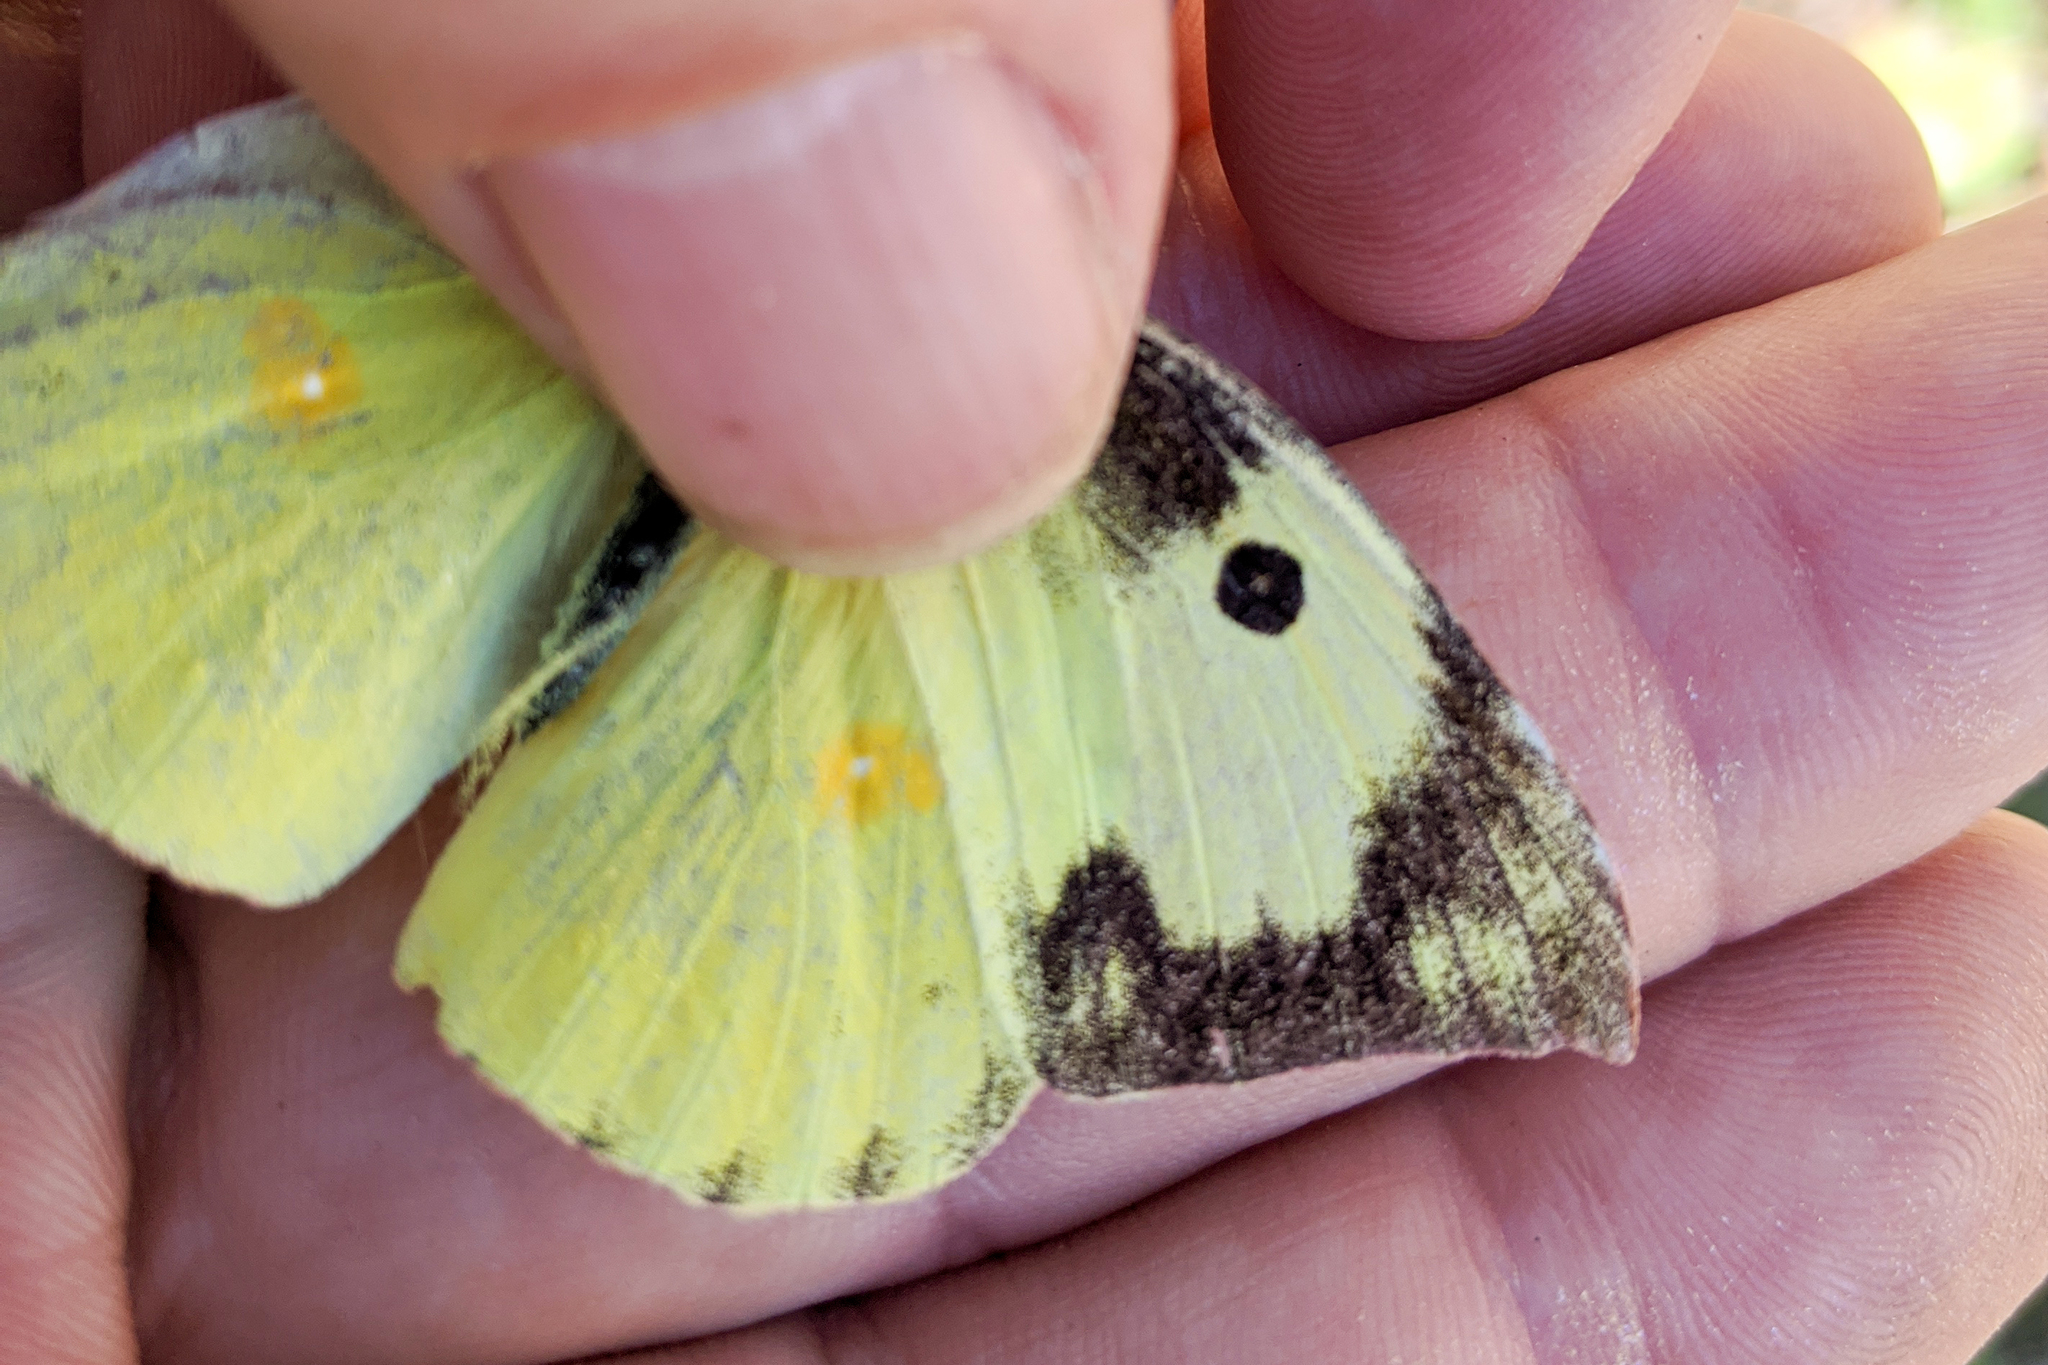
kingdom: Animalia
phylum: Arthropoda
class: Insecta
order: Lepidoptera
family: Pieridae
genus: Zerene
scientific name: Zerene cesonia
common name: Southern dogface
